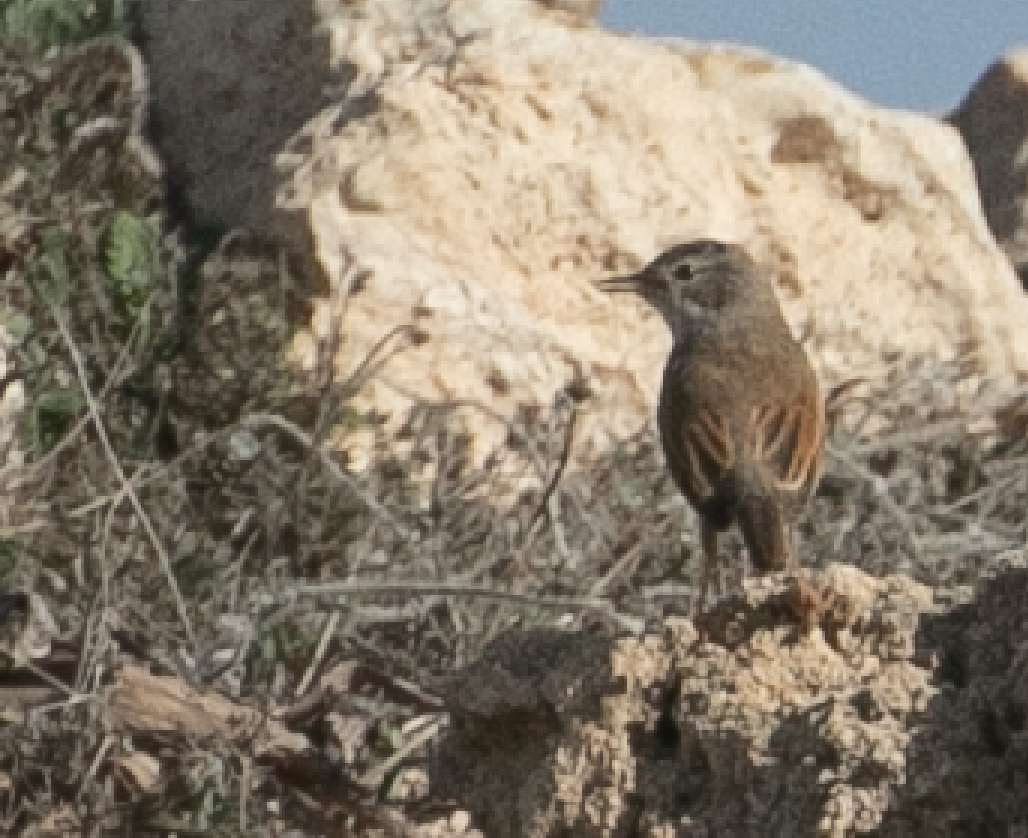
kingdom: Animalia
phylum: Chordata
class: Aves
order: Passeriformes
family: Sylviidae
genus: Sylvia
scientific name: Sylvia conspicillata
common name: Spectacled warbler
